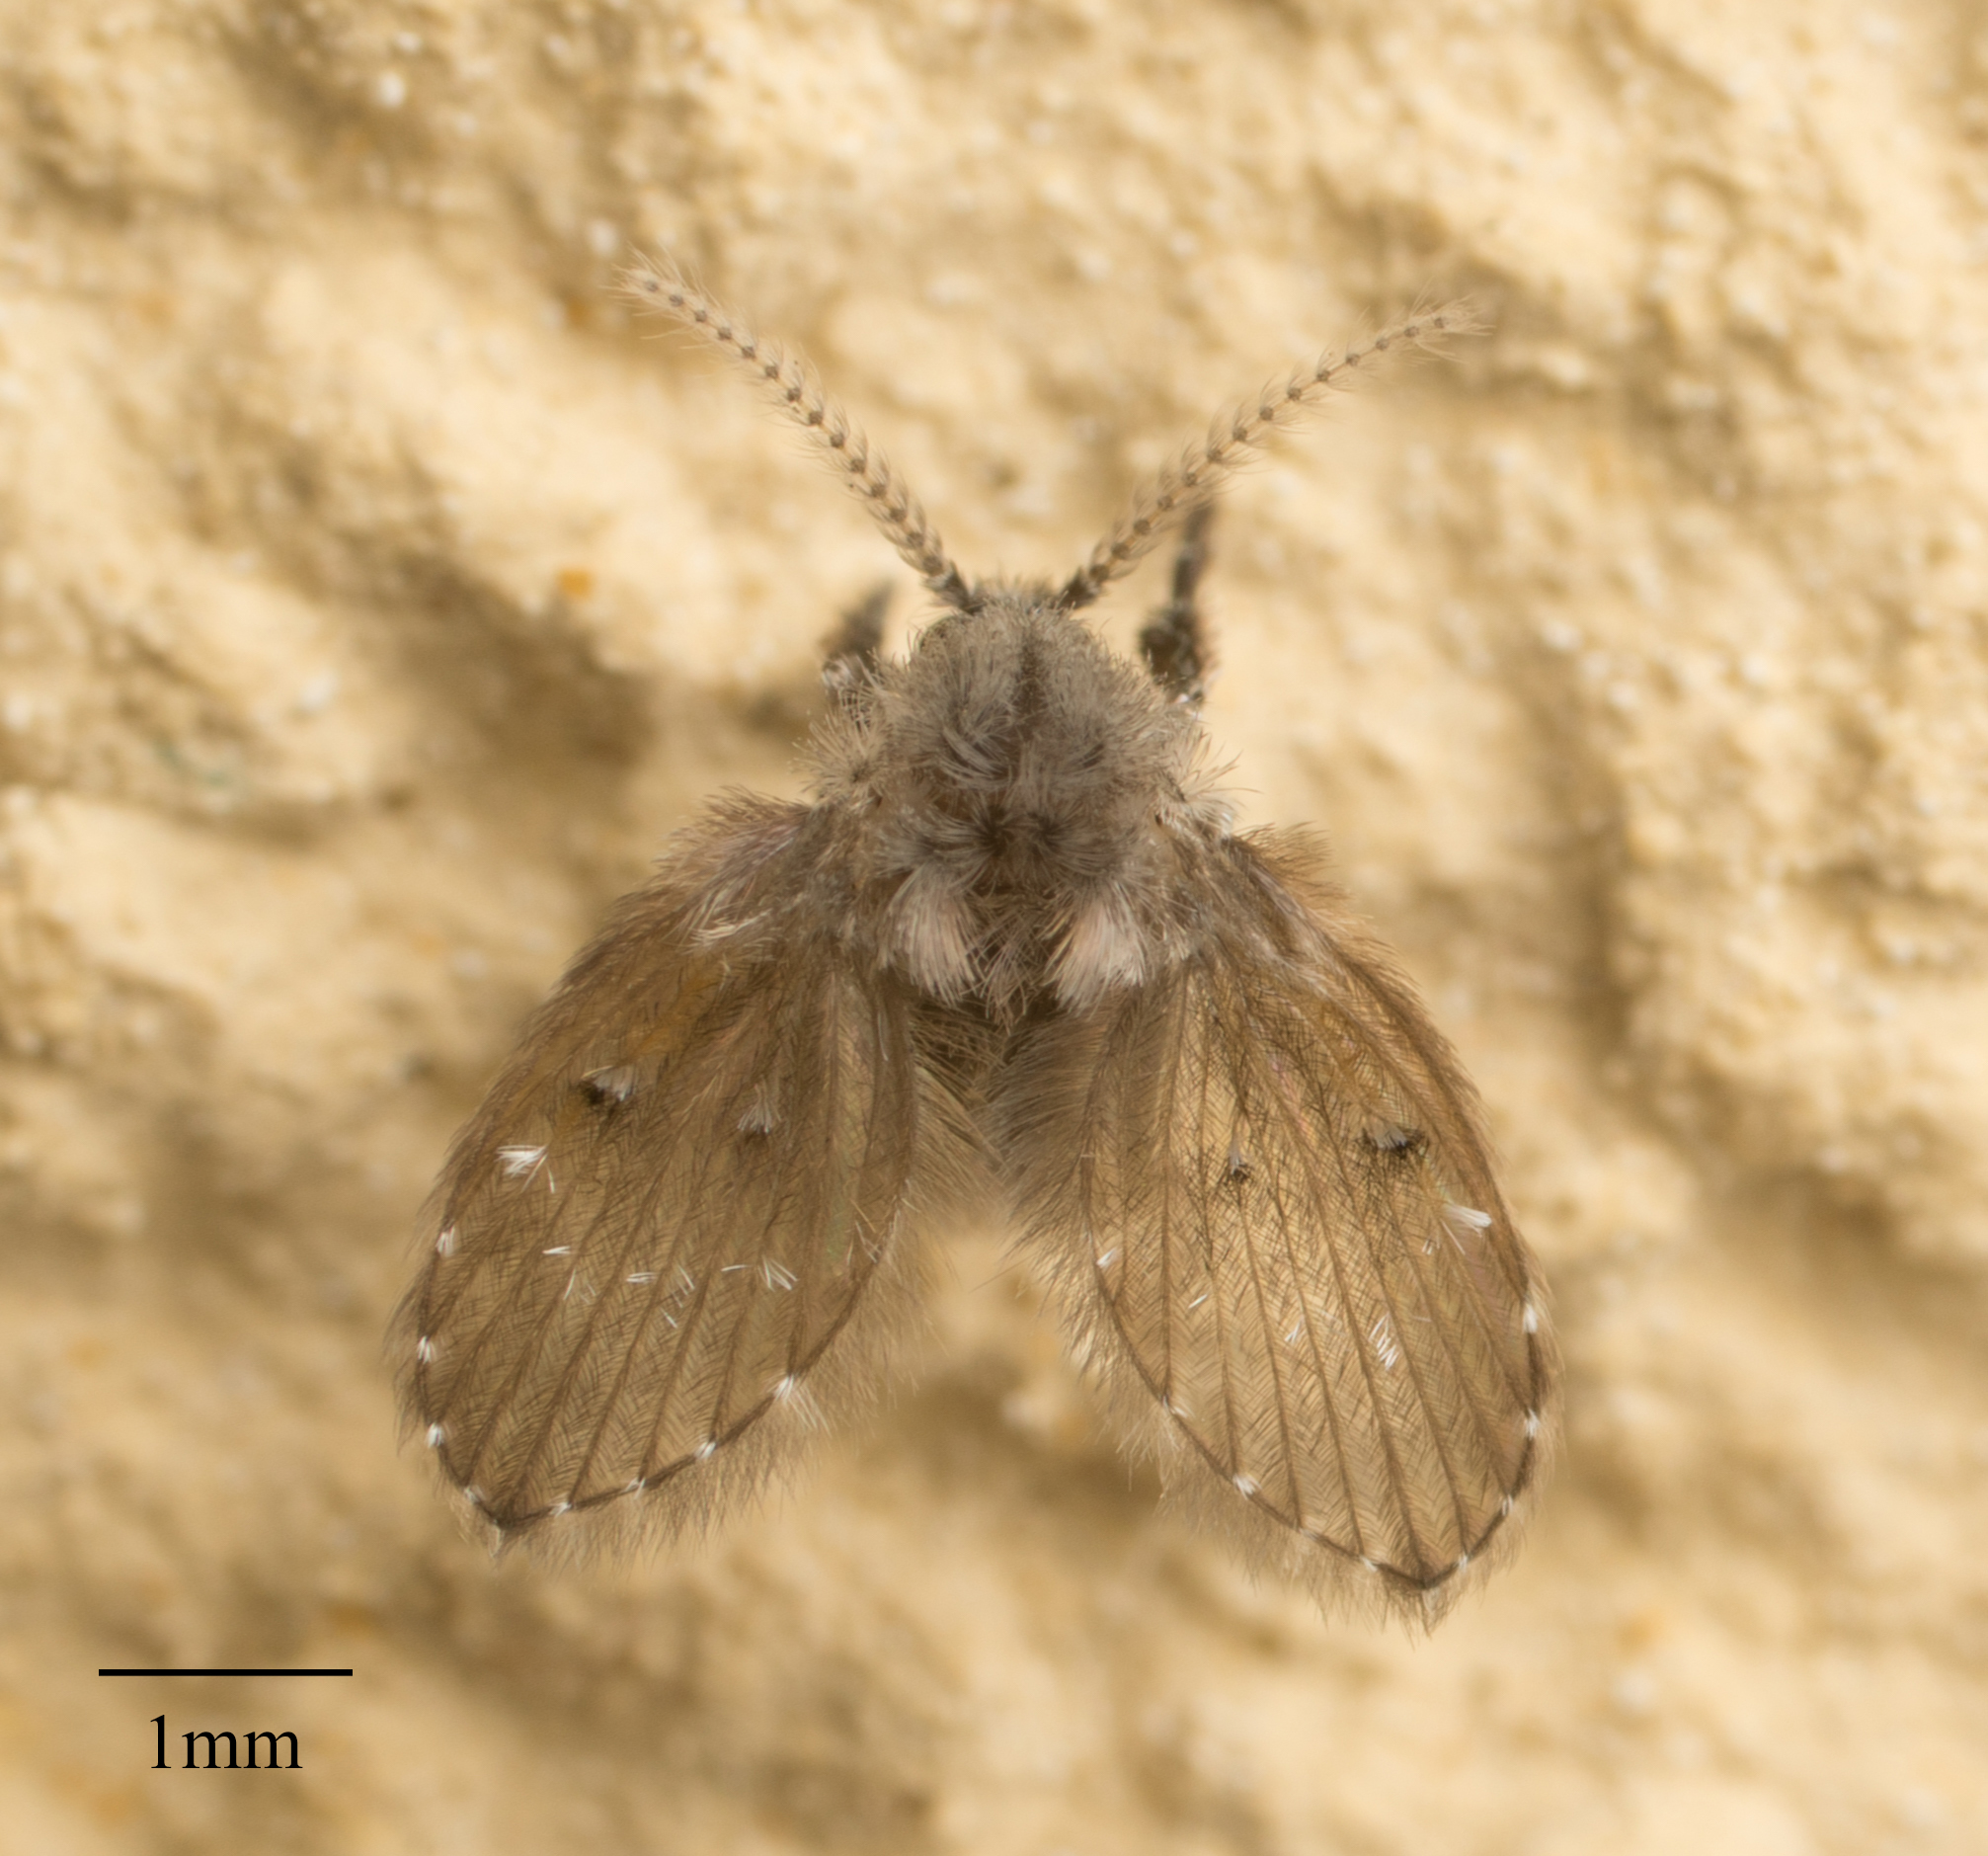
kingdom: Animalia
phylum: Arthropoda
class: Insecta
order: Diptera
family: Psychodidae
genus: Clogmia
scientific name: Clogmia albipunctatus
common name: White-spotted moth fly
